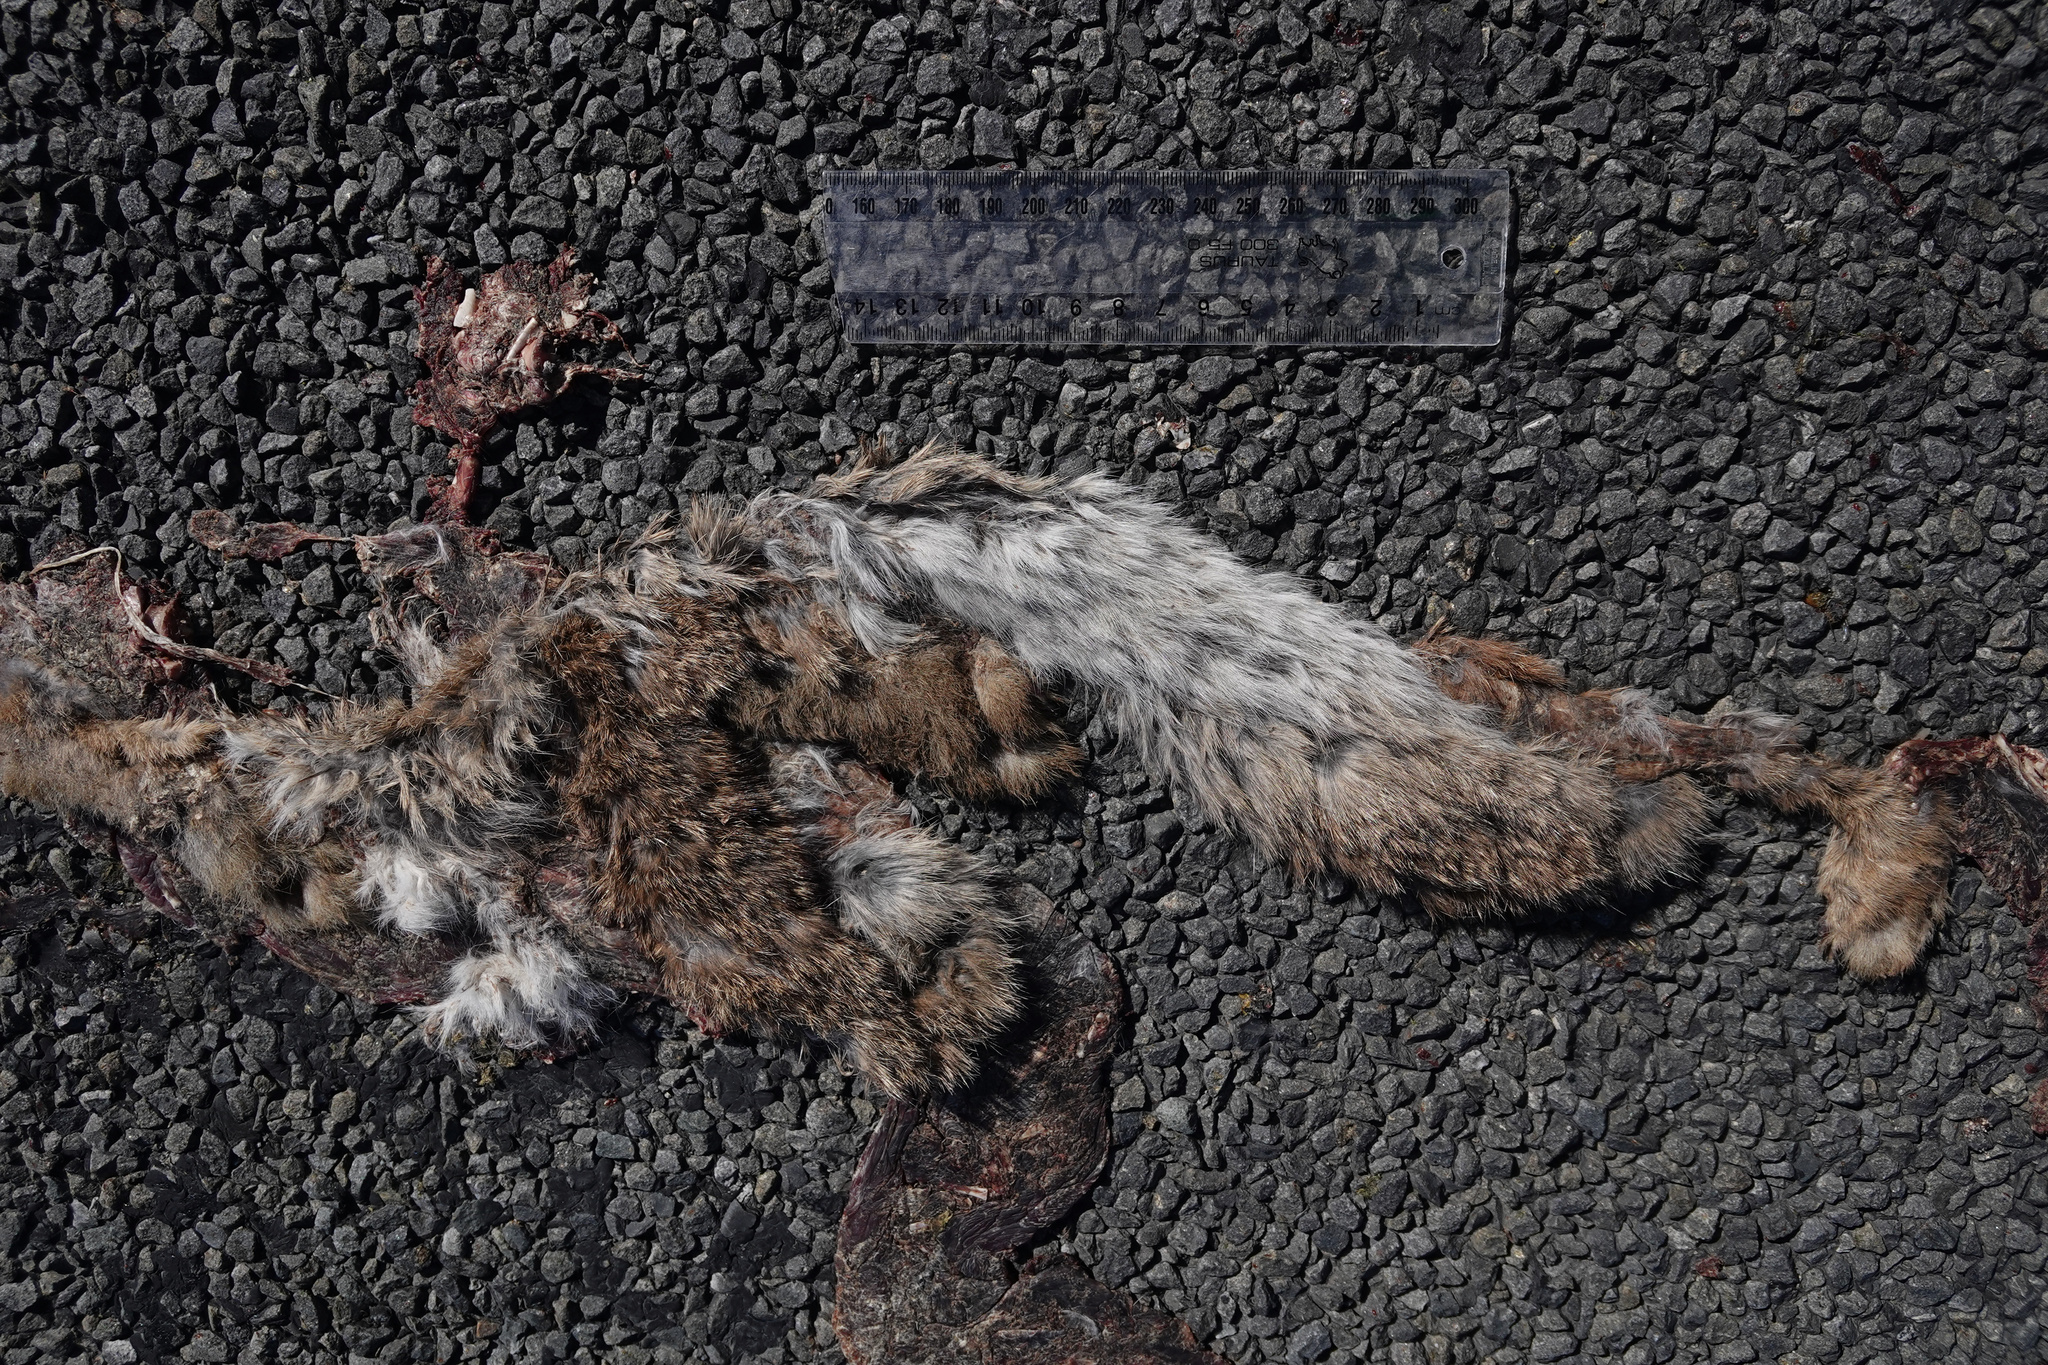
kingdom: Animalia
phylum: Chordata
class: Mammalia
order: Lagomorpha
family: Leporidae
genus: Oryctolagus
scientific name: Oryctolagus cuniculus
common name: European rabbit
